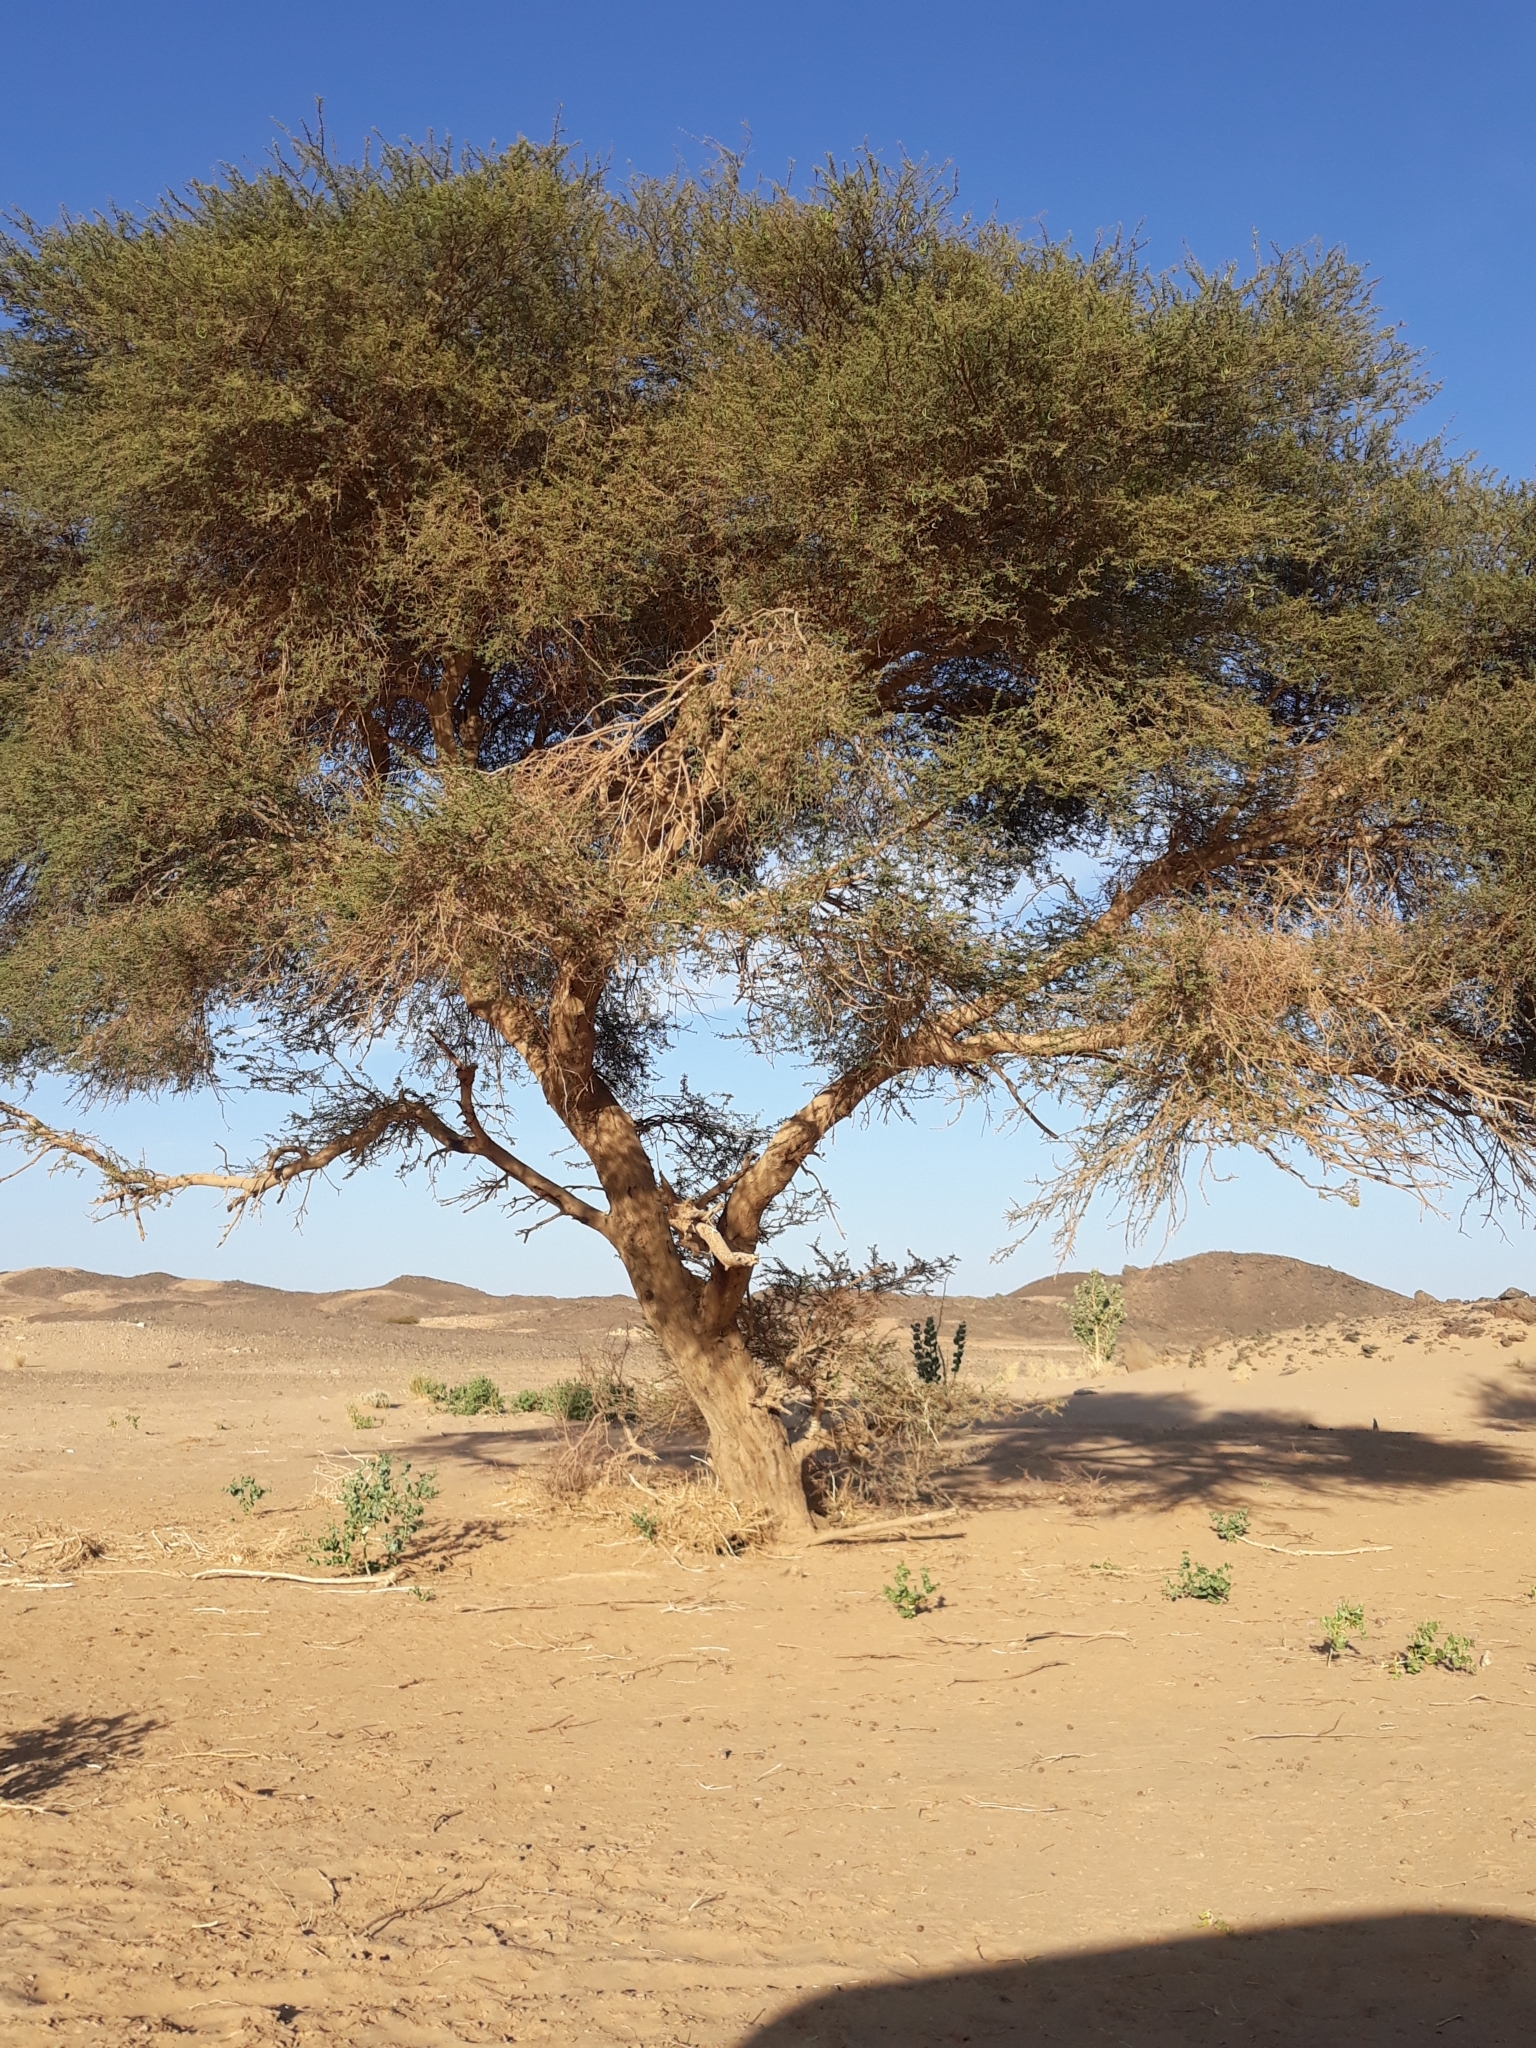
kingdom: Plantae
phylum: Tracheophyta
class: Magnoliopsida
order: Fabales
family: Fabaceae
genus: Vachellia
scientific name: Vachellia tortilis
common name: Umbrella thorn acacia
